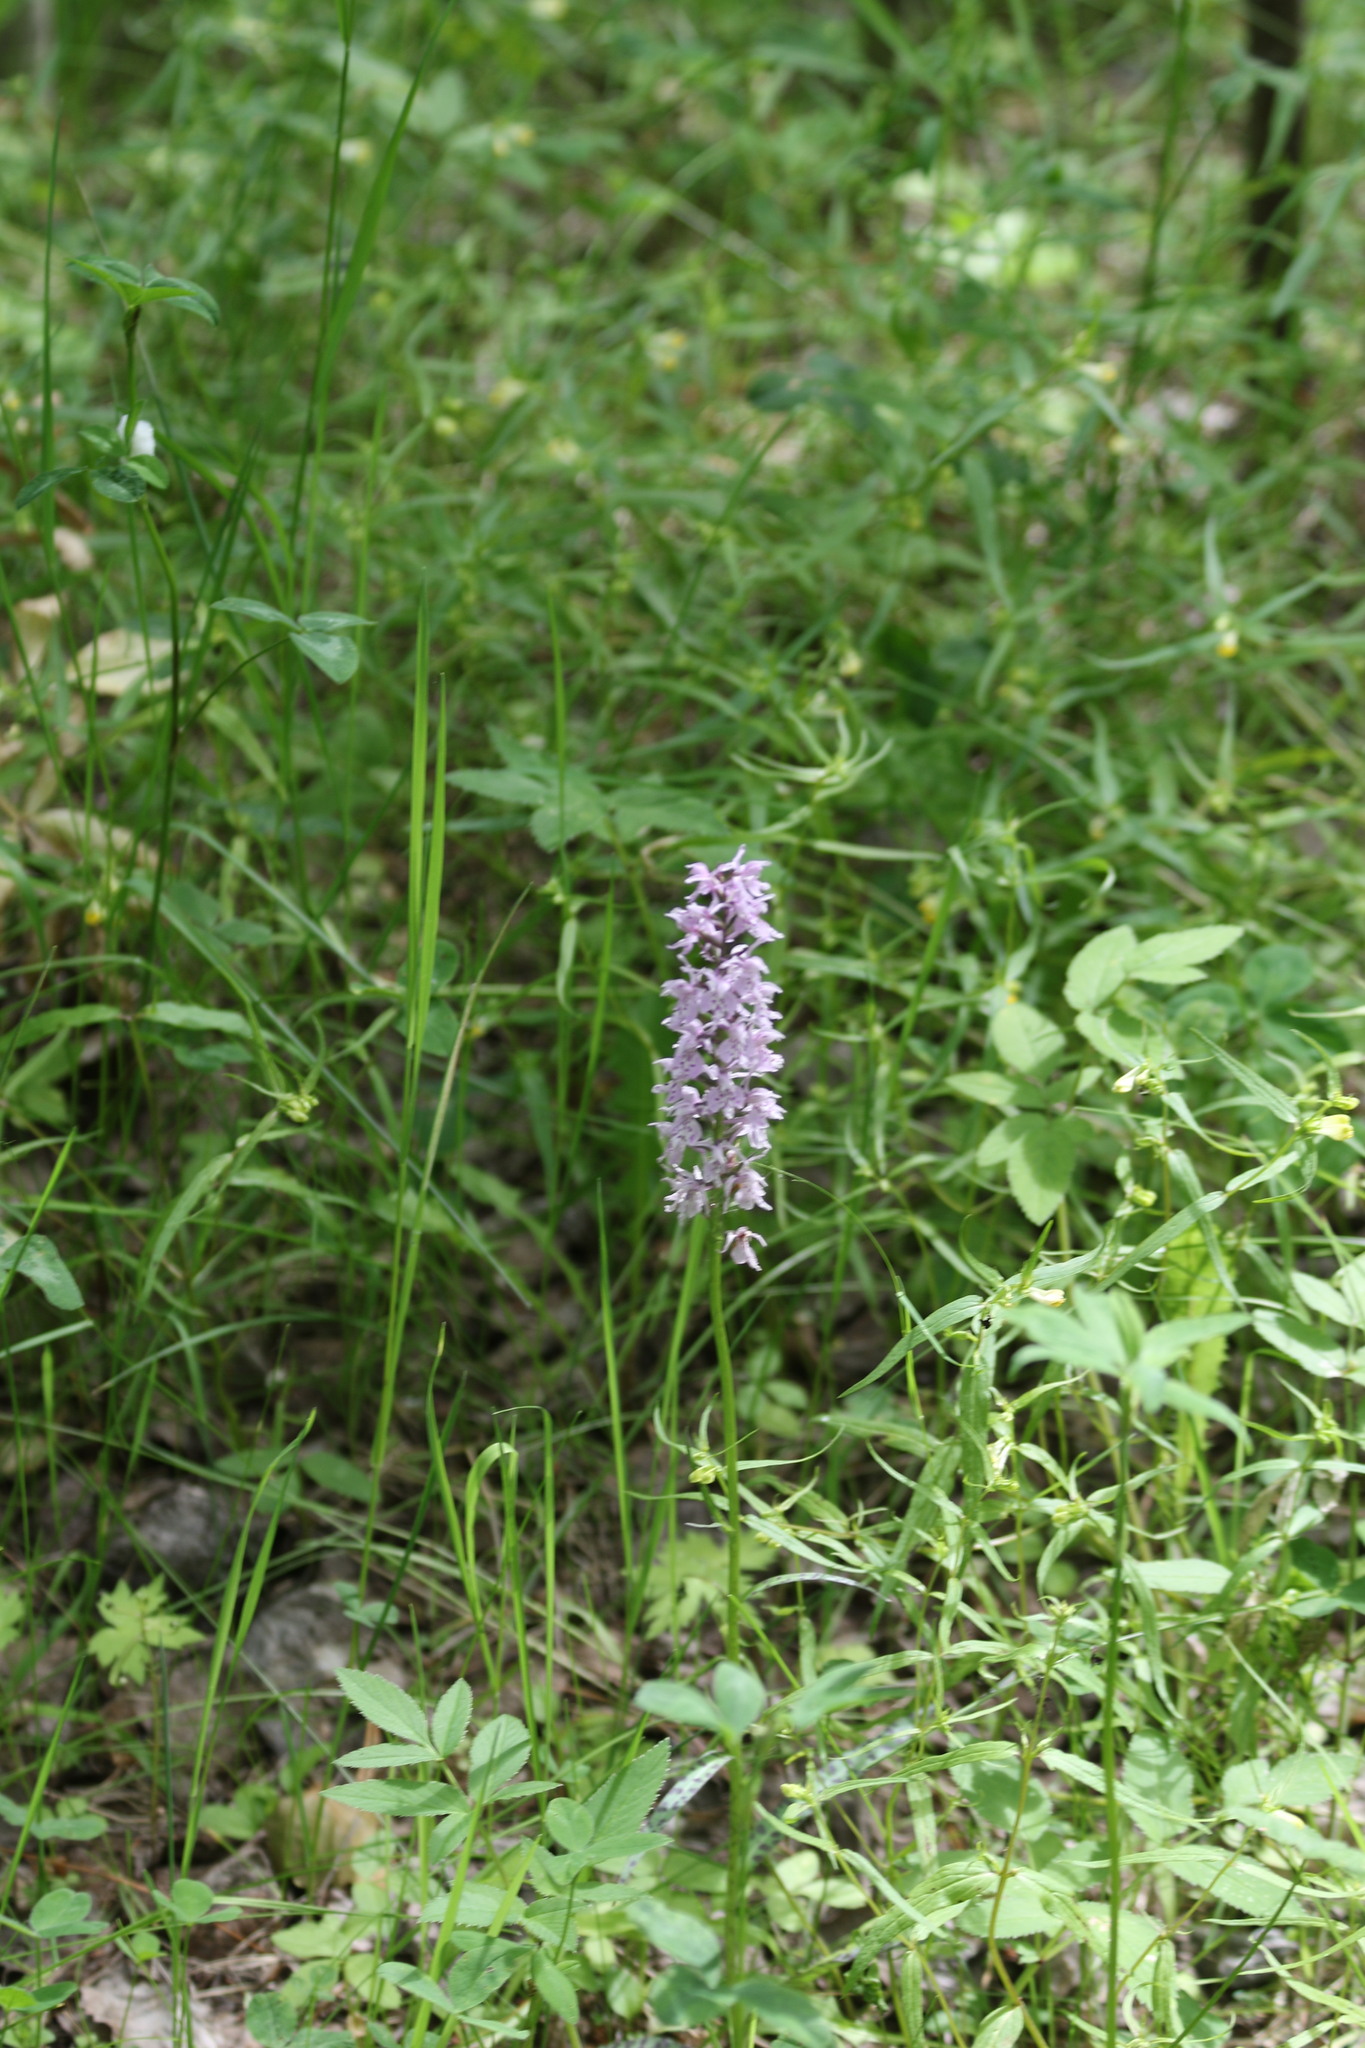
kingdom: Plantae
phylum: Tracheophyta
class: Liliopsida
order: Asparagales
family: Orchidaceae
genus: Dactylorhiza
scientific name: Dactylorhiza maculata
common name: Heath spotted-orchid
